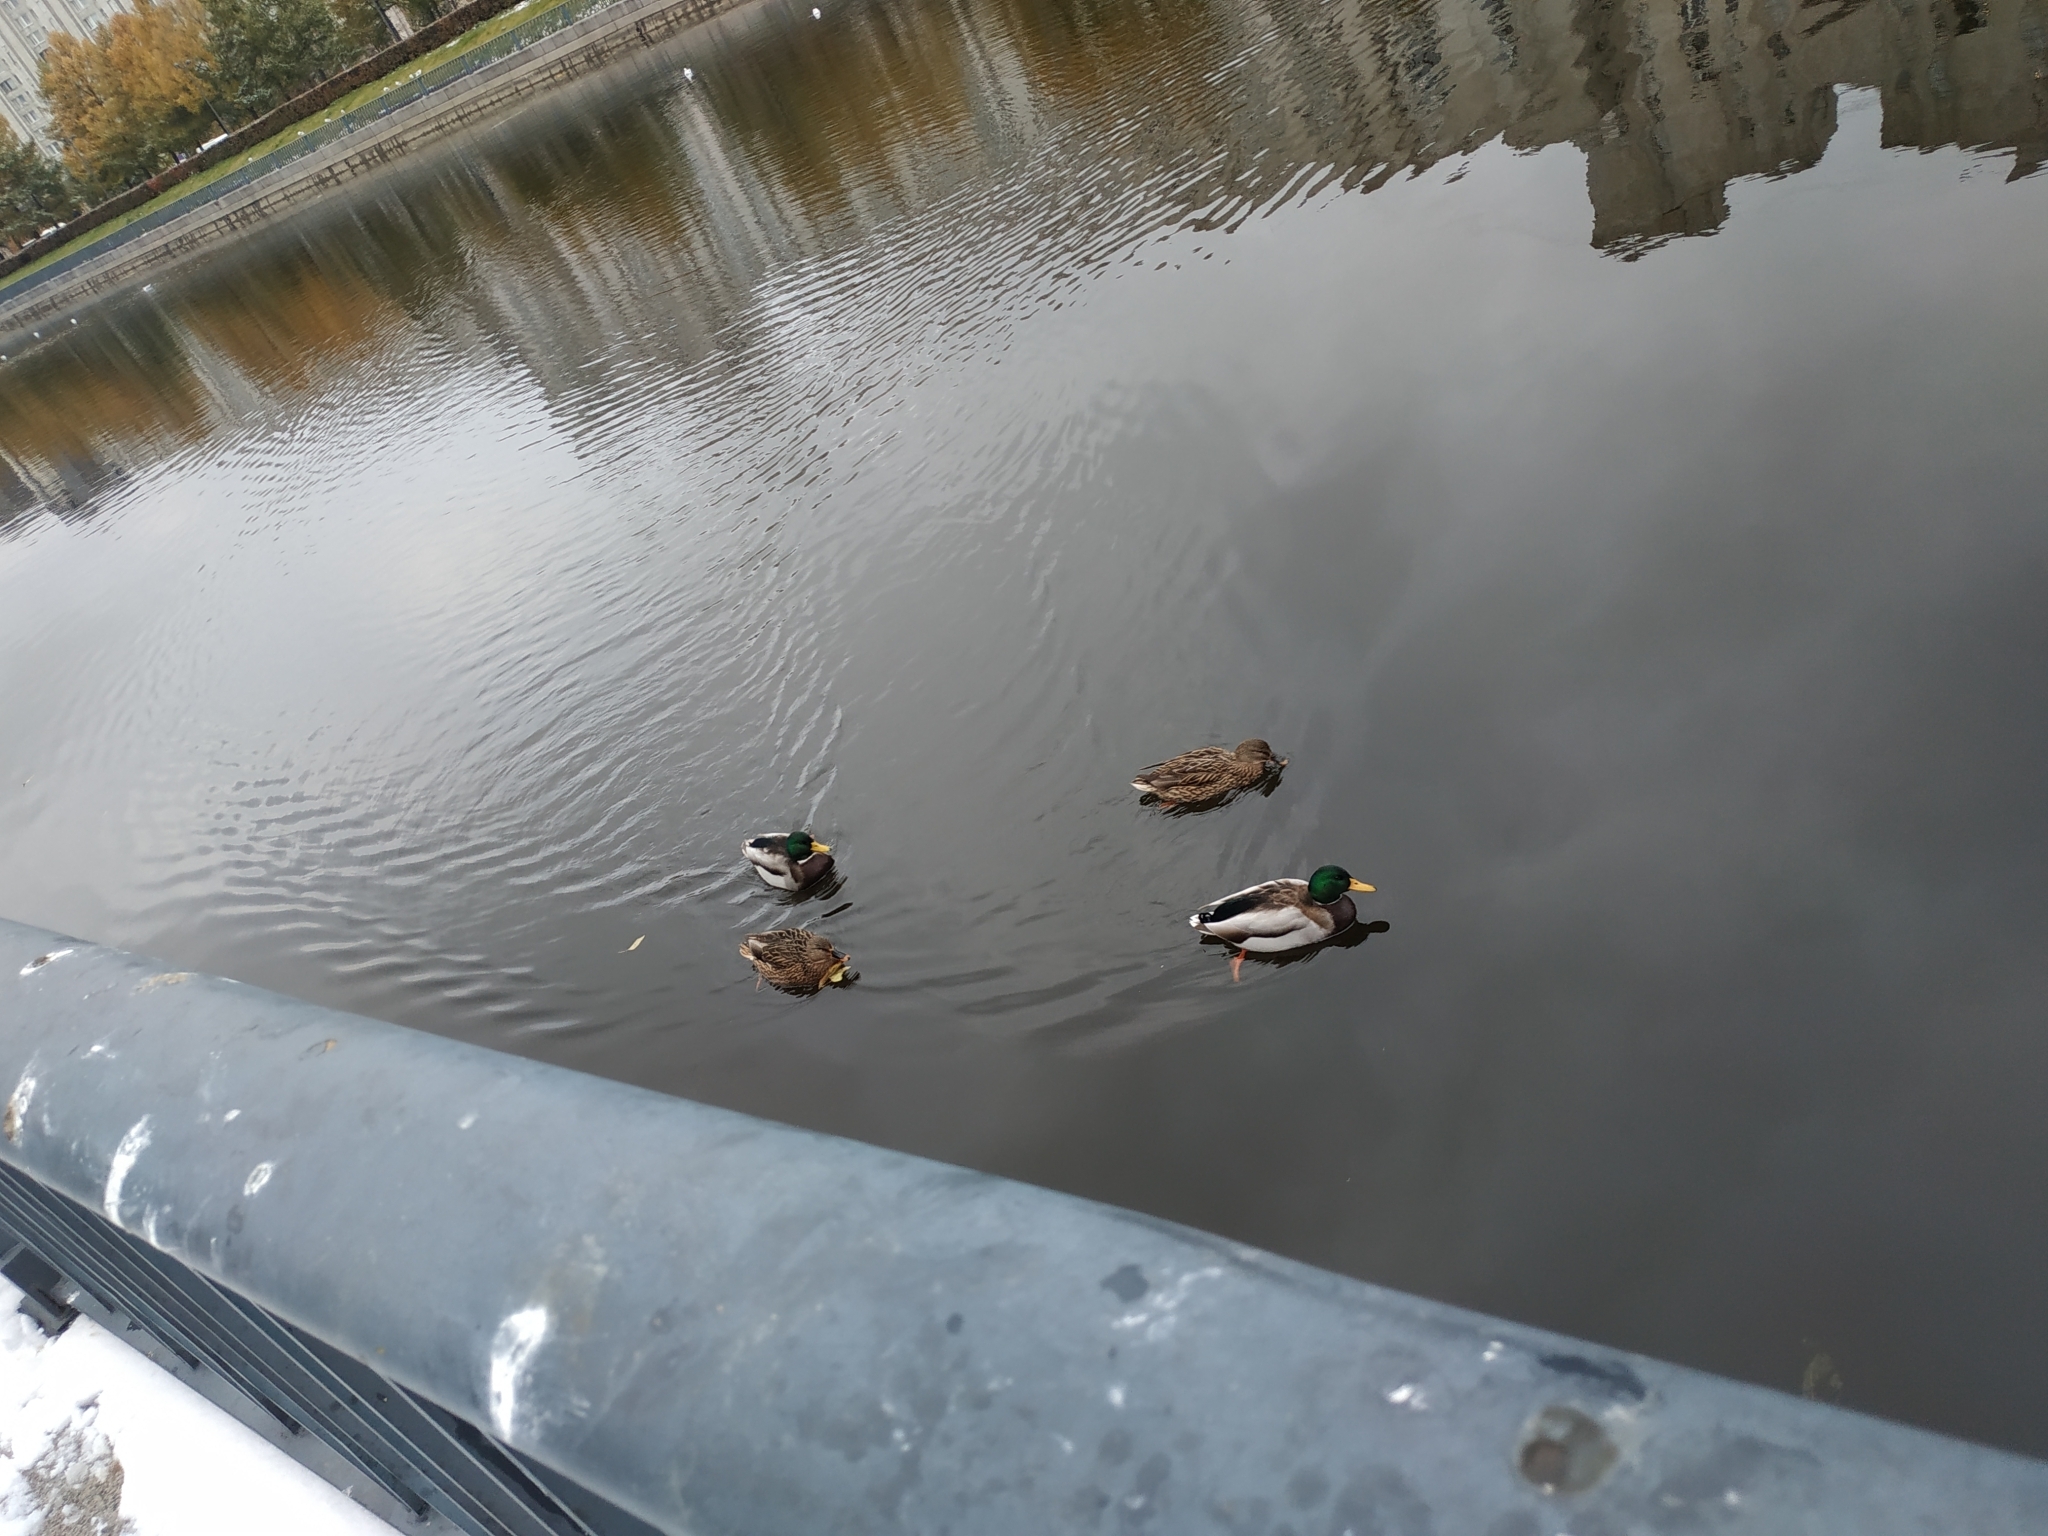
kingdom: Animalia
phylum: Chordata
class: Aves
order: Anseriformes
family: Anatidae
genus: Anas
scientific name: Anas platyrhynchos
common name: Mallard
